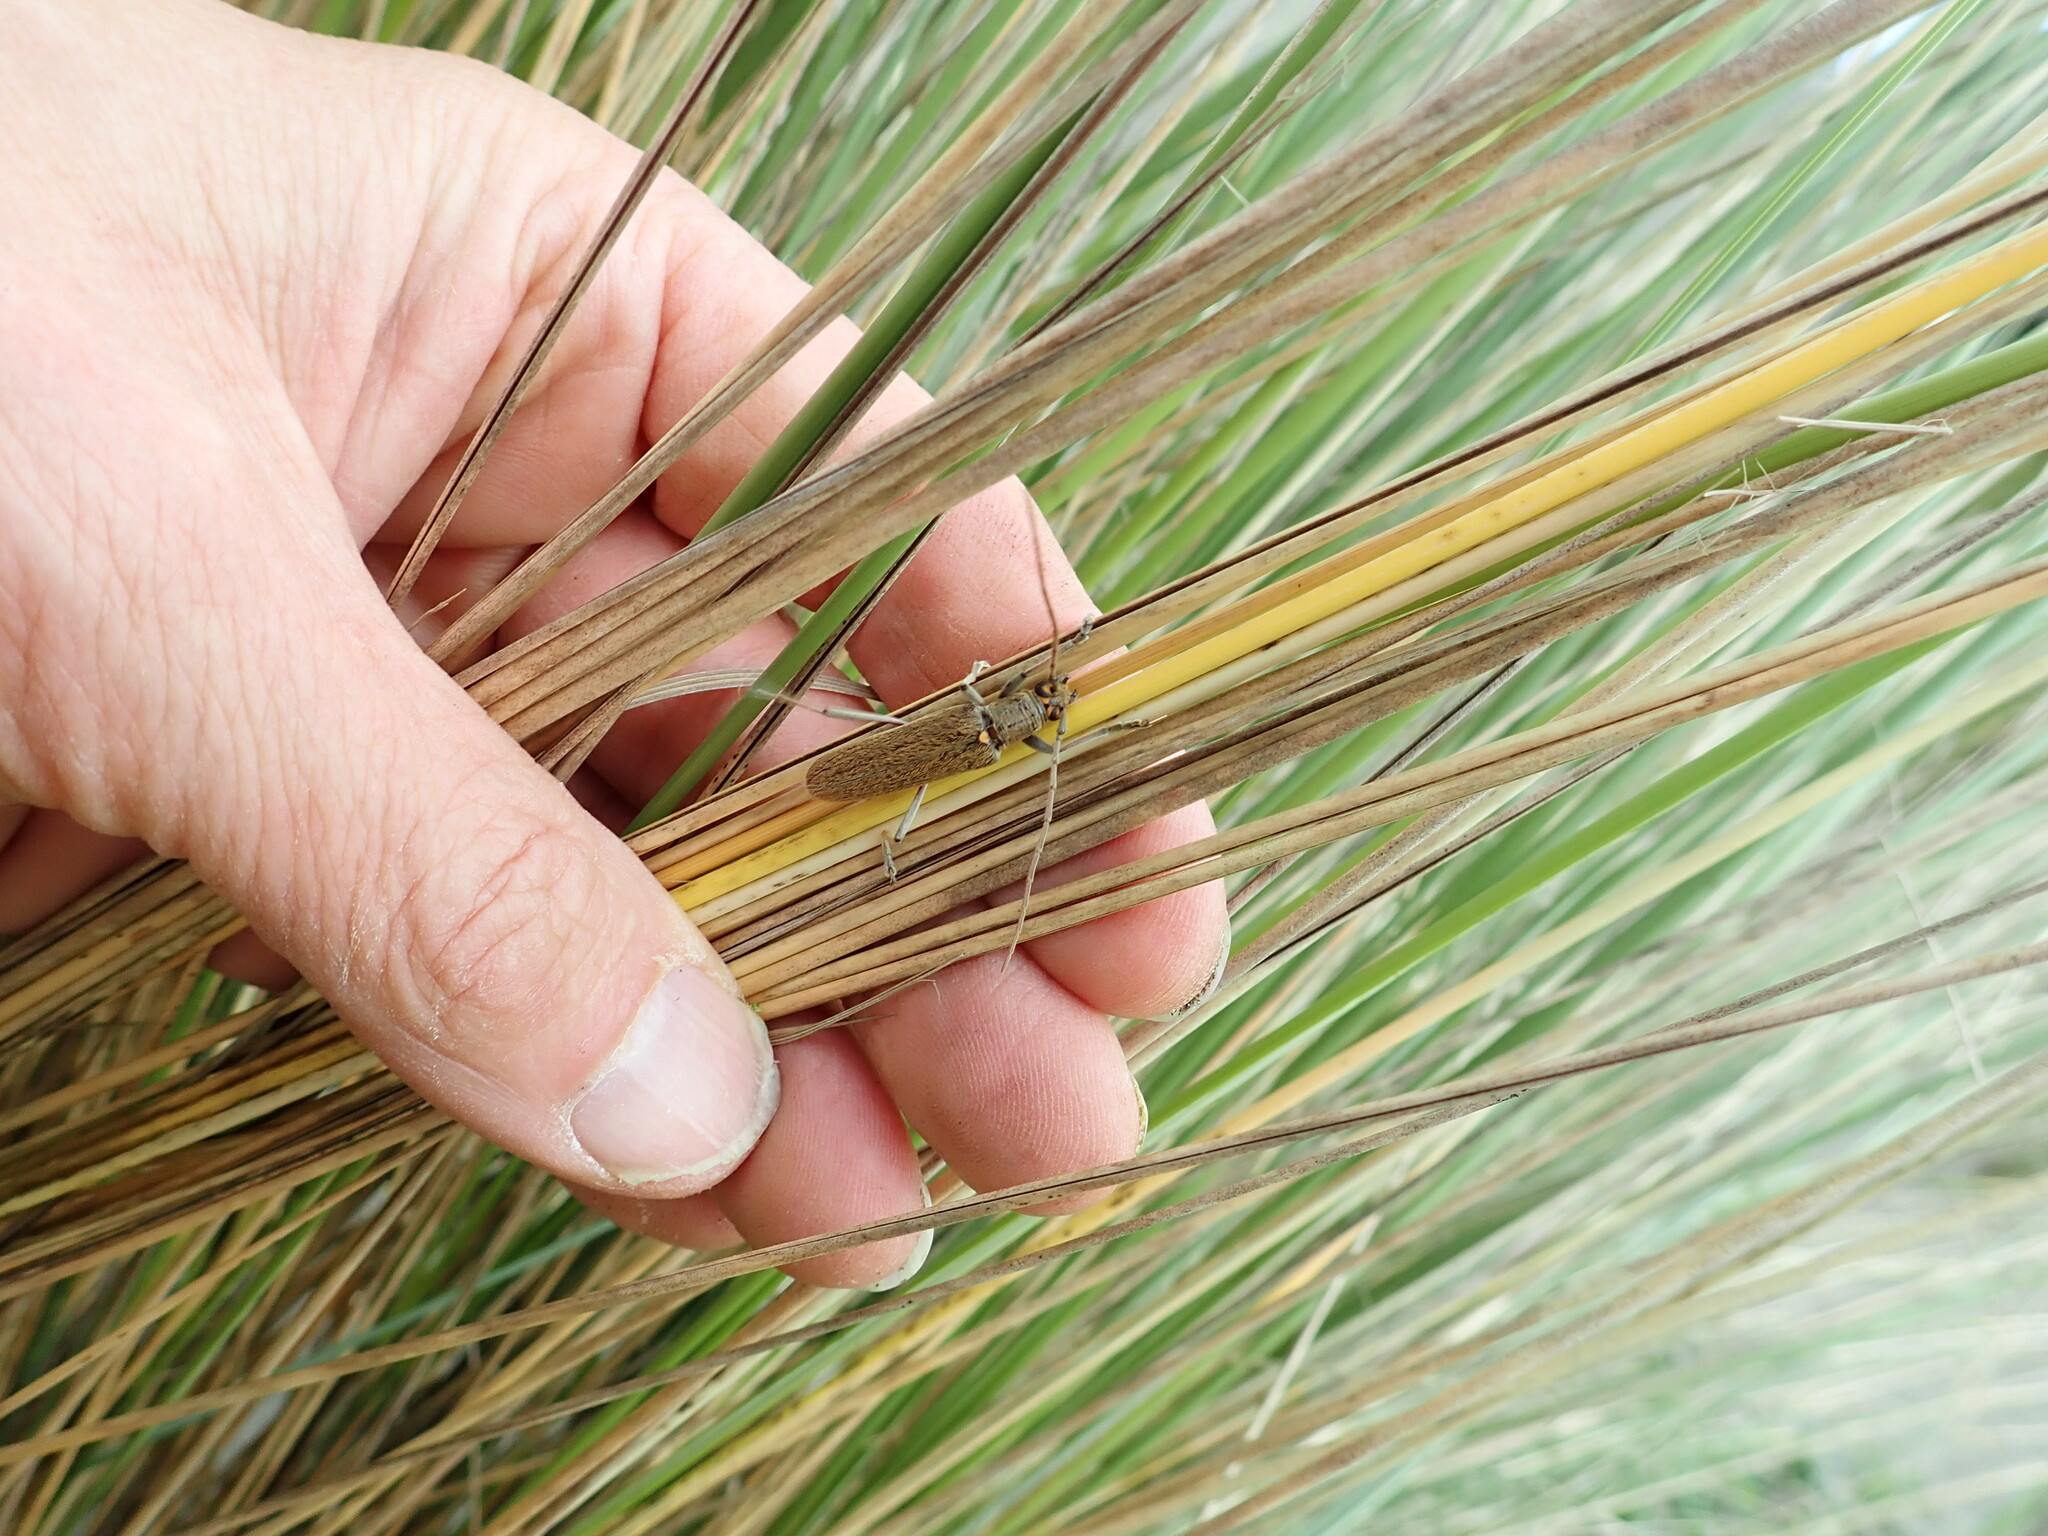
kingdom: Animalia
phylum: Arthropoda
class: Insecta
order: Coleoptera
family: Cerambycidae
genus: Oemona
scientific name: Oemona hirta
